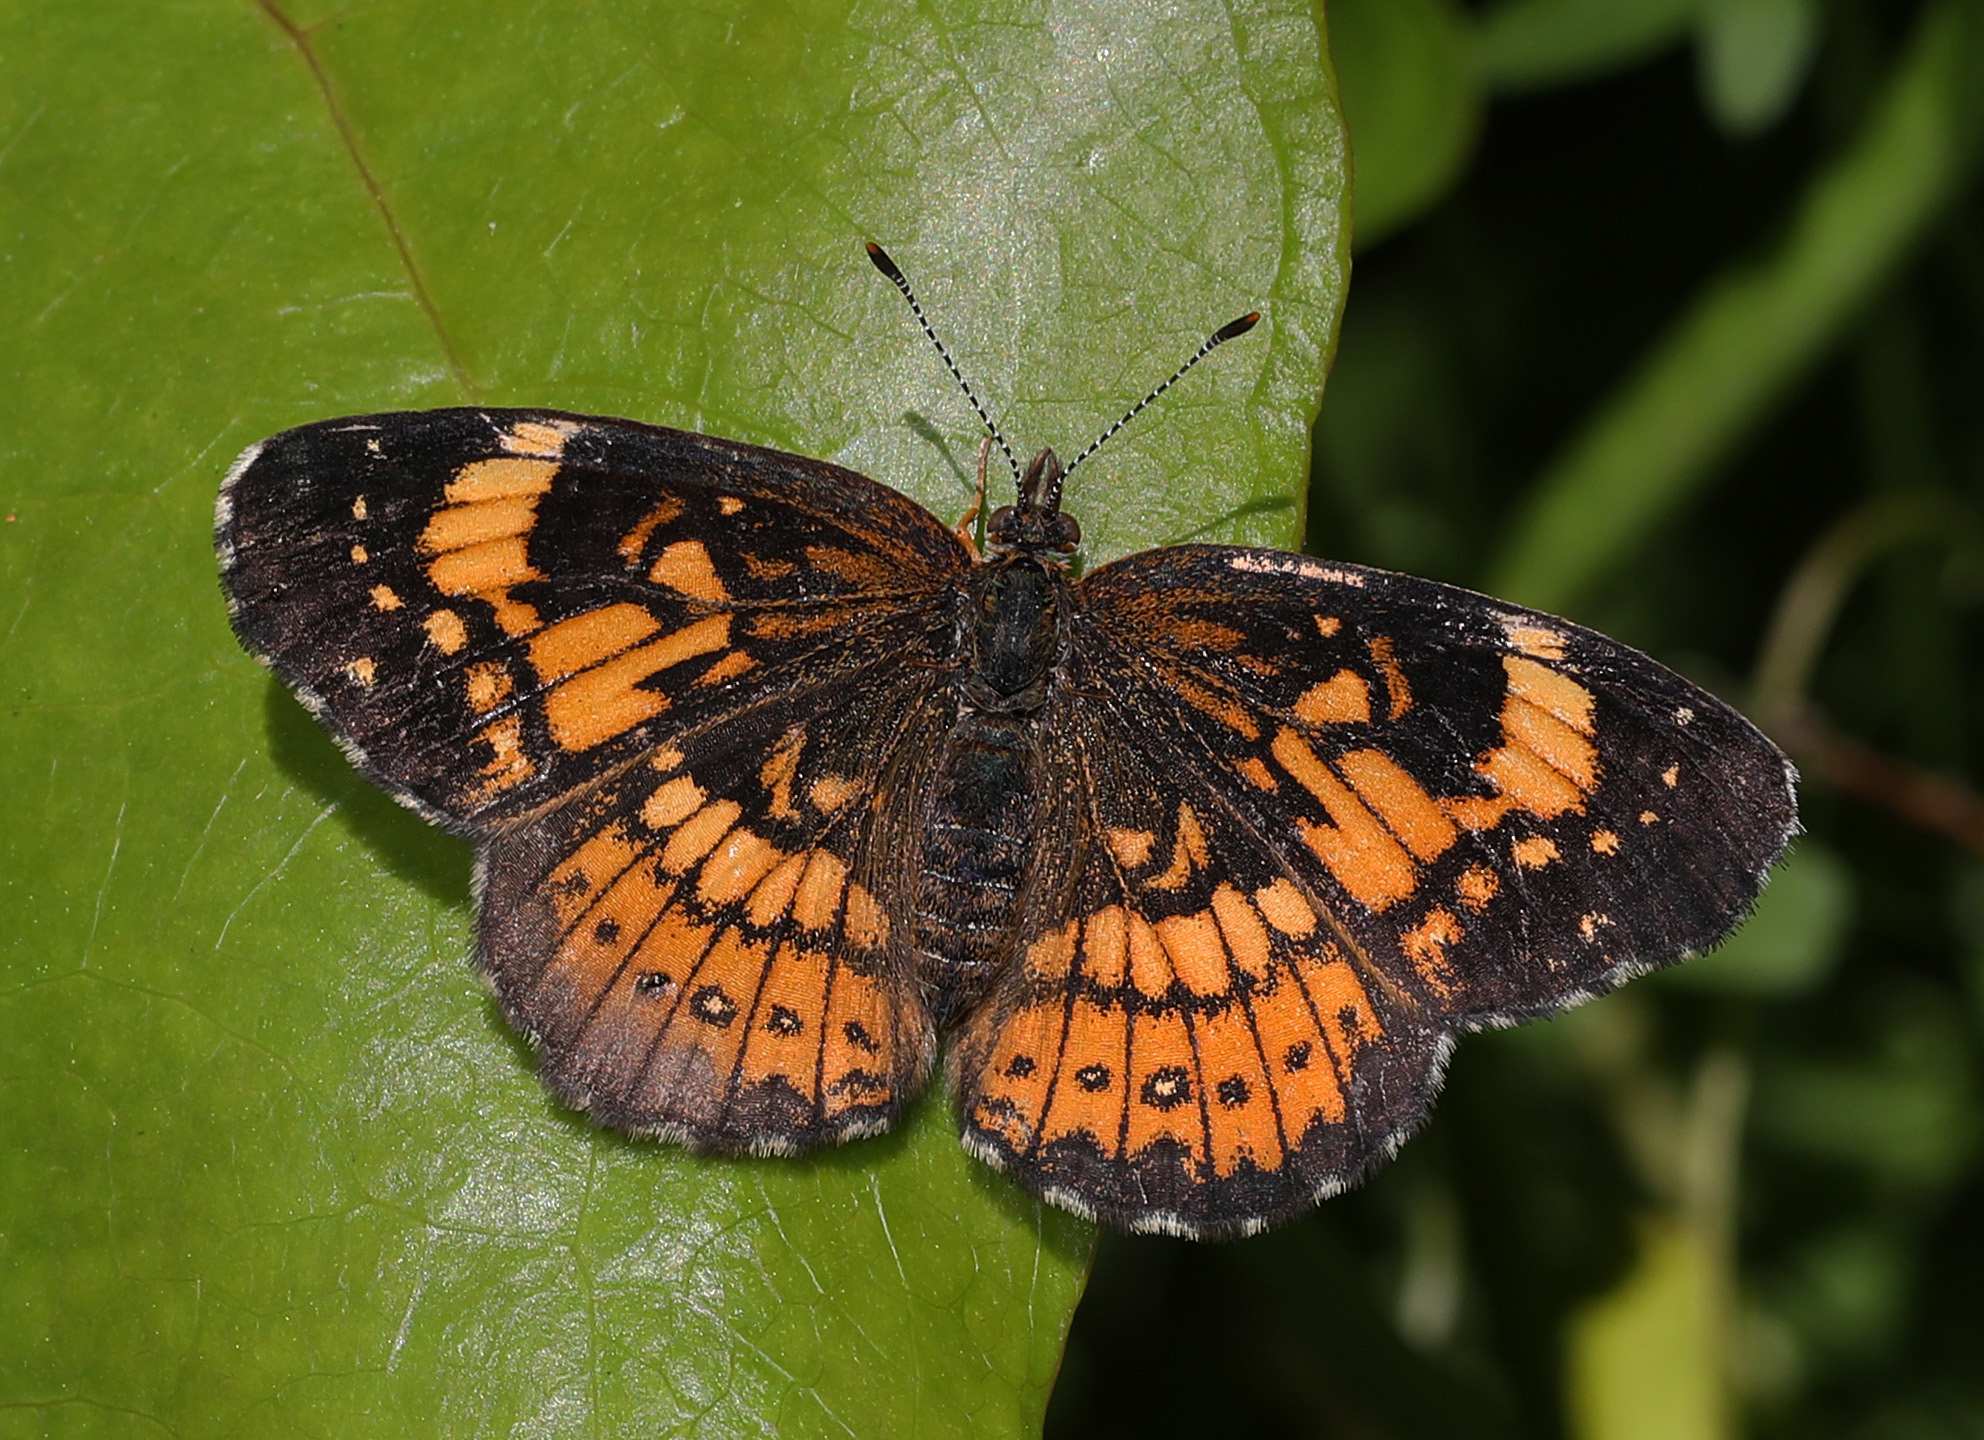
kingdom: Animalia
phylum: Arthropoda
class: Insecta
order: Lepidoptera
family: Nymphalidae
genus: Chlosyne
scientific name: Chlosyne nycteis
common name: Silvery checkerspot
